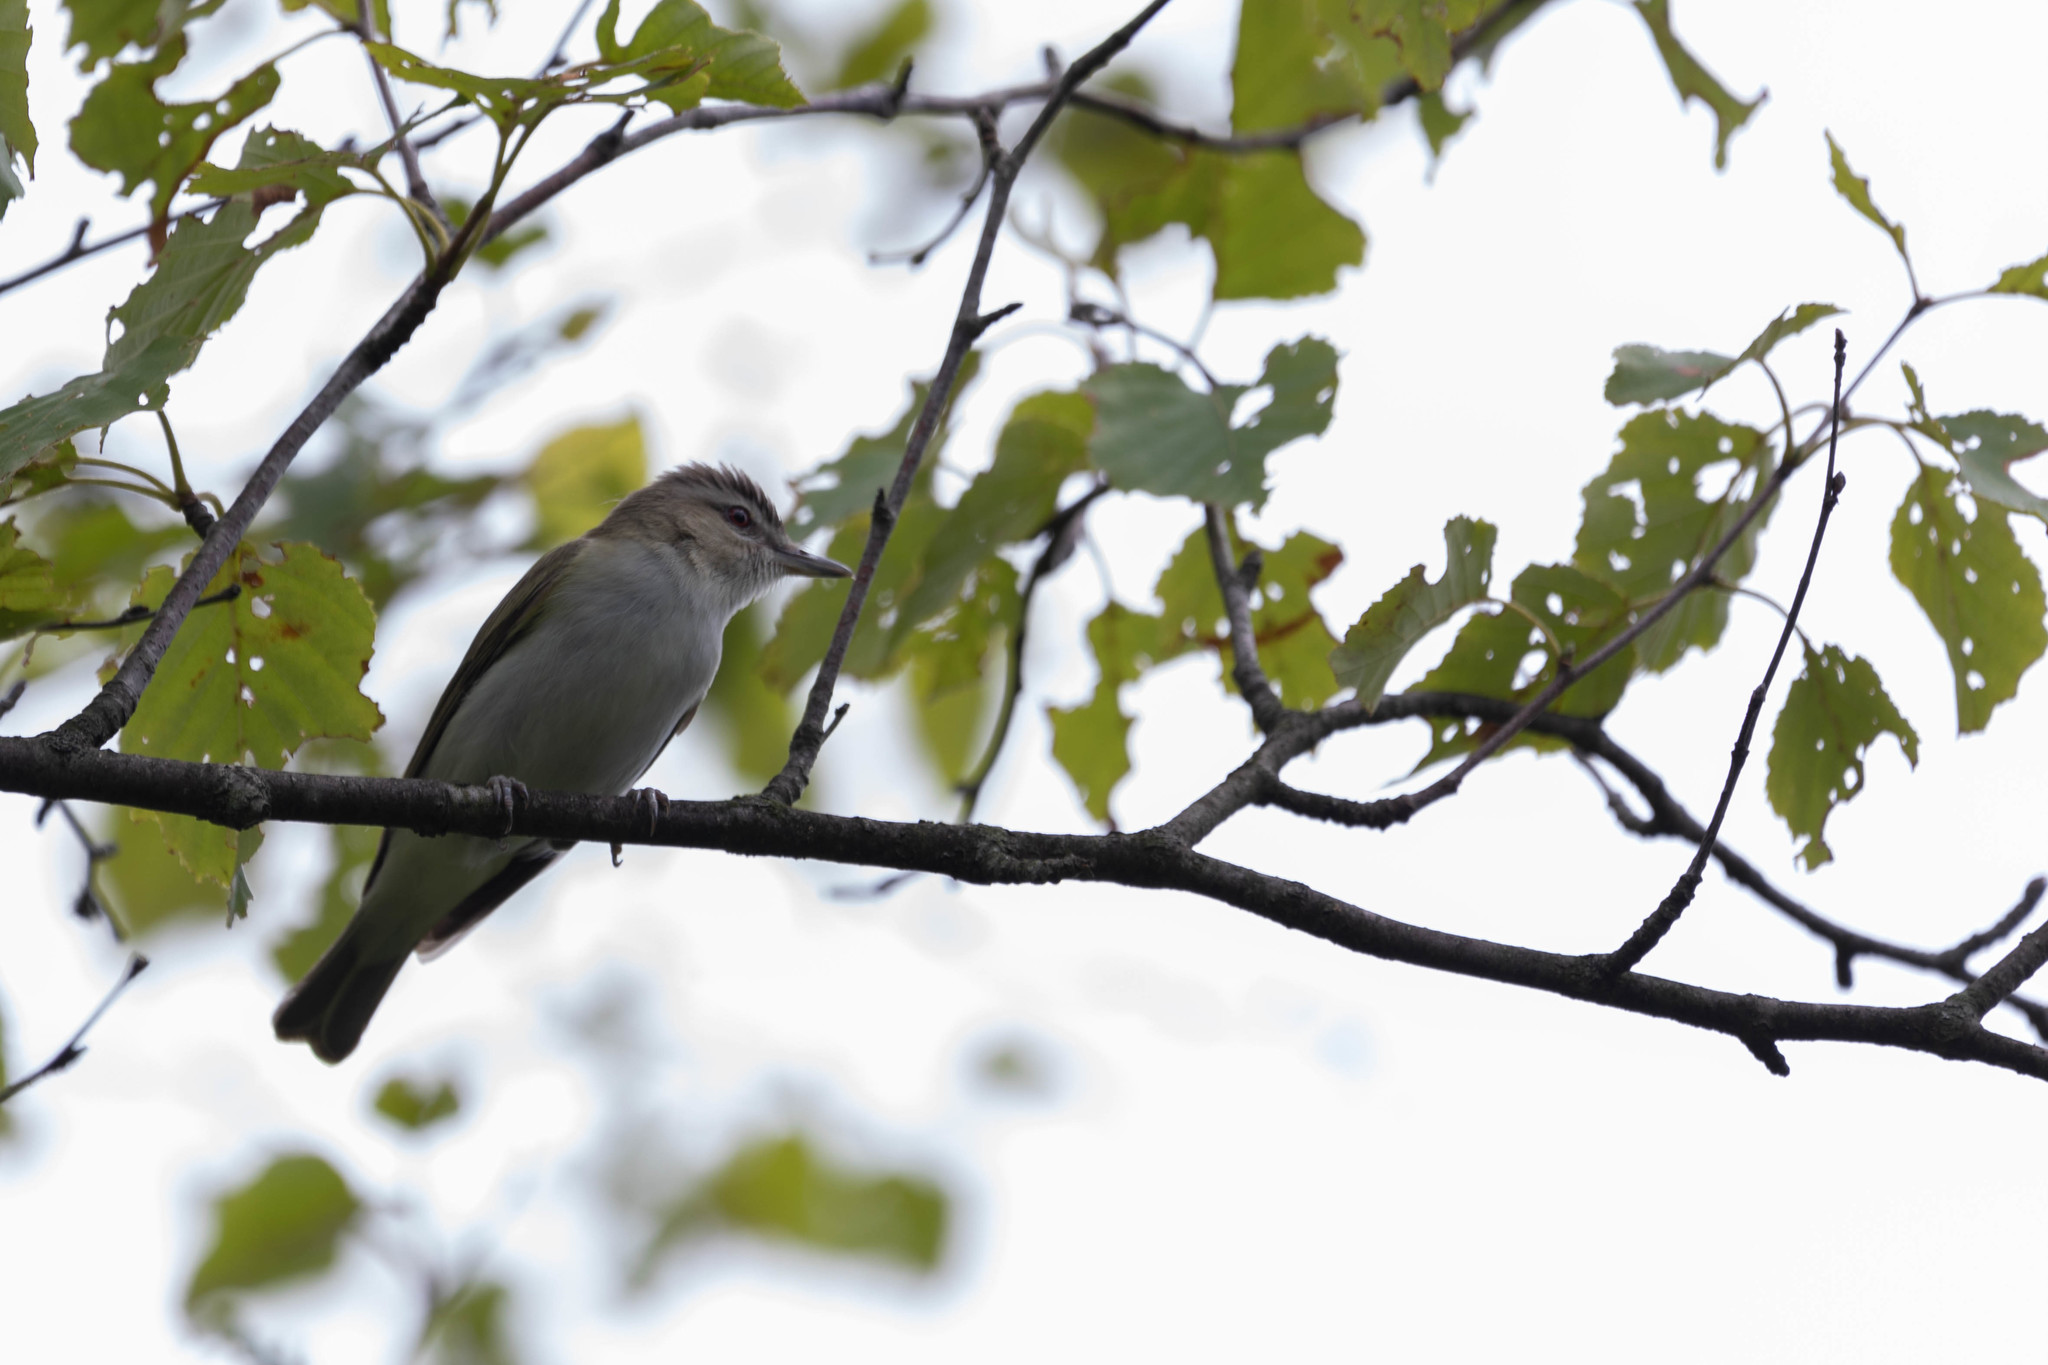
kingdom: Animalia
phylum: Chordata
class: Aves
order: Passeriformes
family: Vireonidae
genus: Vireo
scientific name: Vireo olivaceus
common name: Red-eyed vireo
